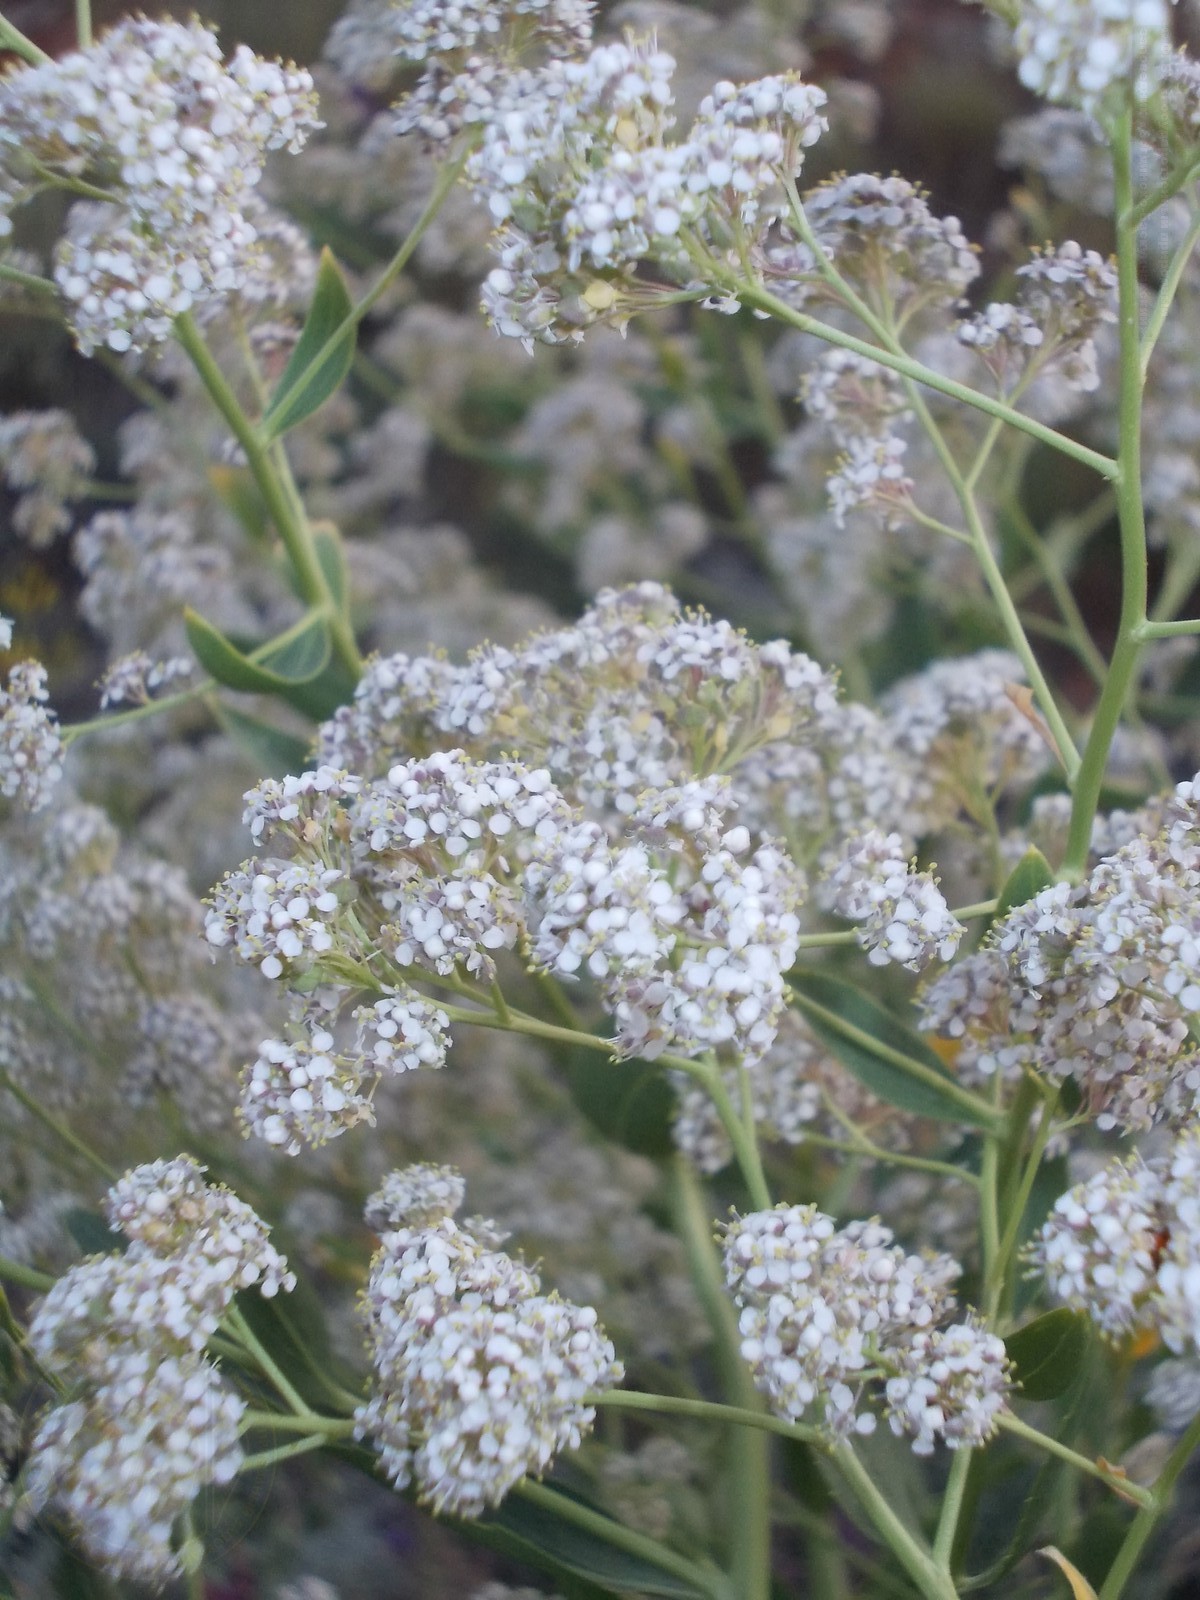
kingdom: Plantae
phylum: Tracheophyta
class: Magnoliopsida
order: Brassicales
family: Brassicaceae
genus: Lepidium
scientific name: Lepidium latifolium
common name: Dittander
